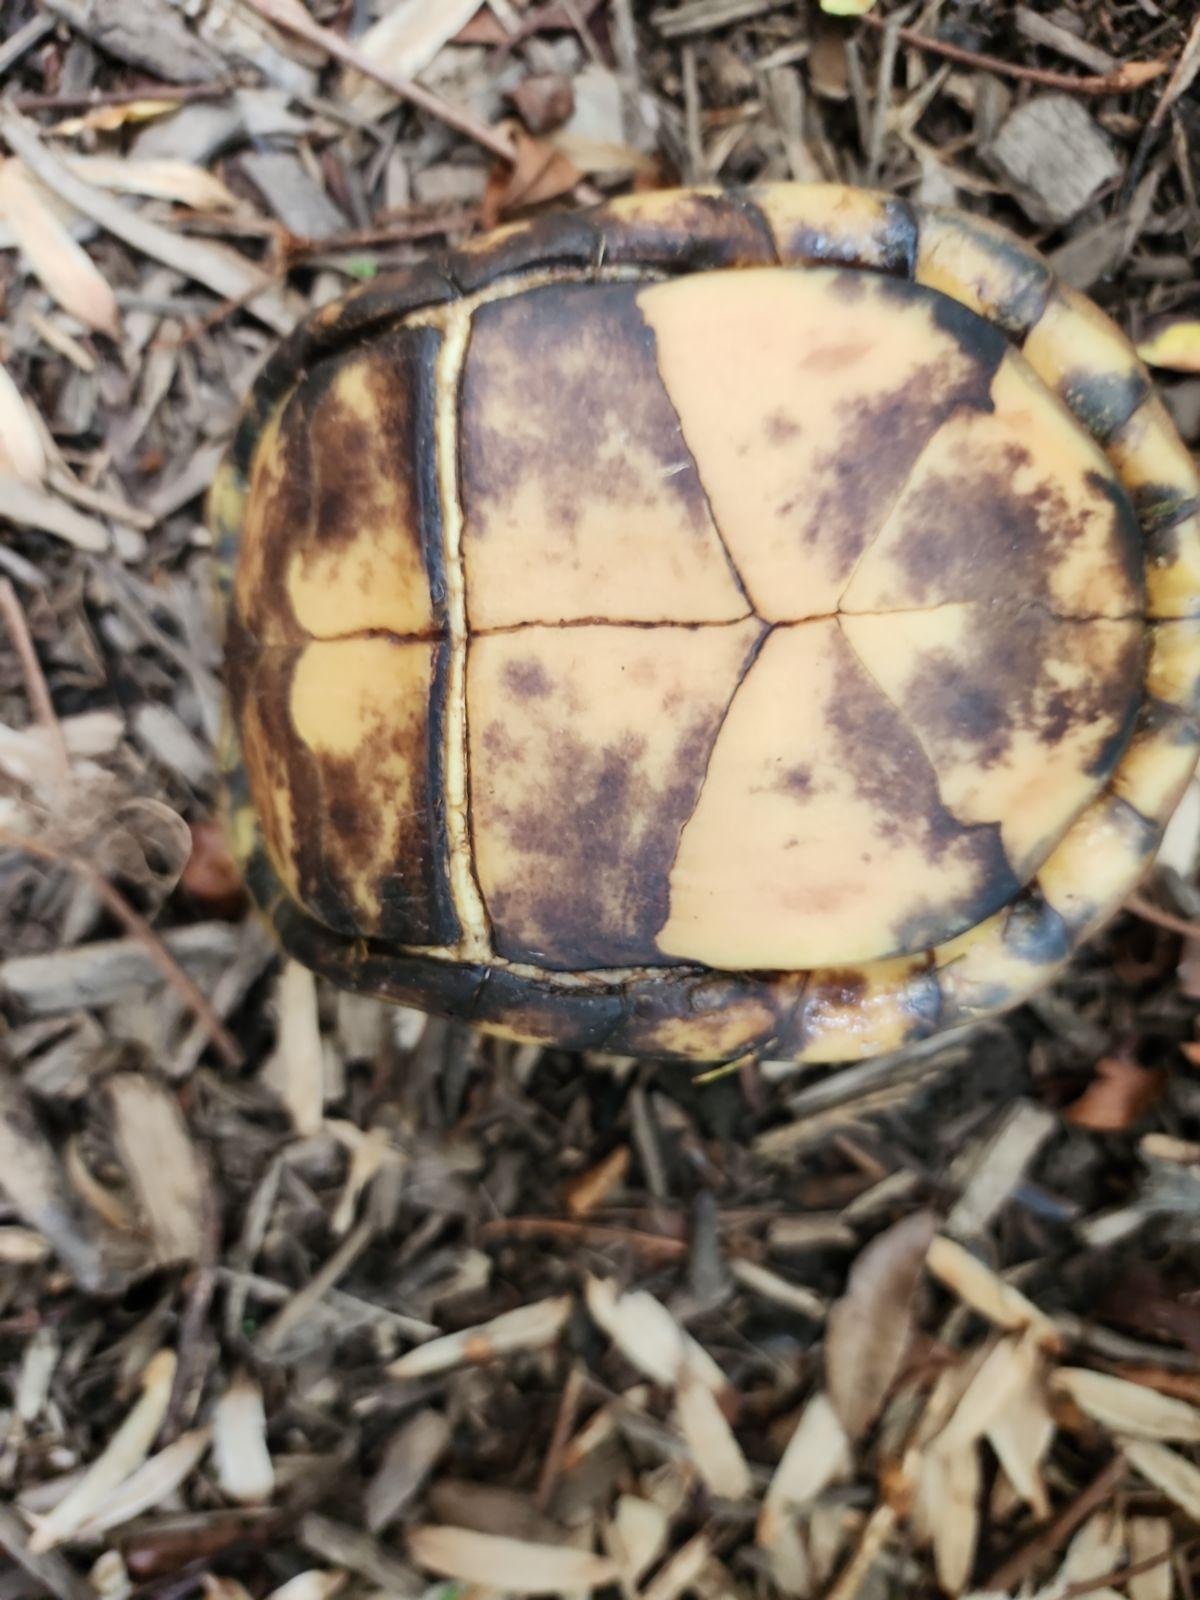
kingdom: Animalia
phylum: Chordata
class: Testudines
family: Emydidae
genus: Terrapene
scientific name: Terrapene carolina
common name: Common box turtle
